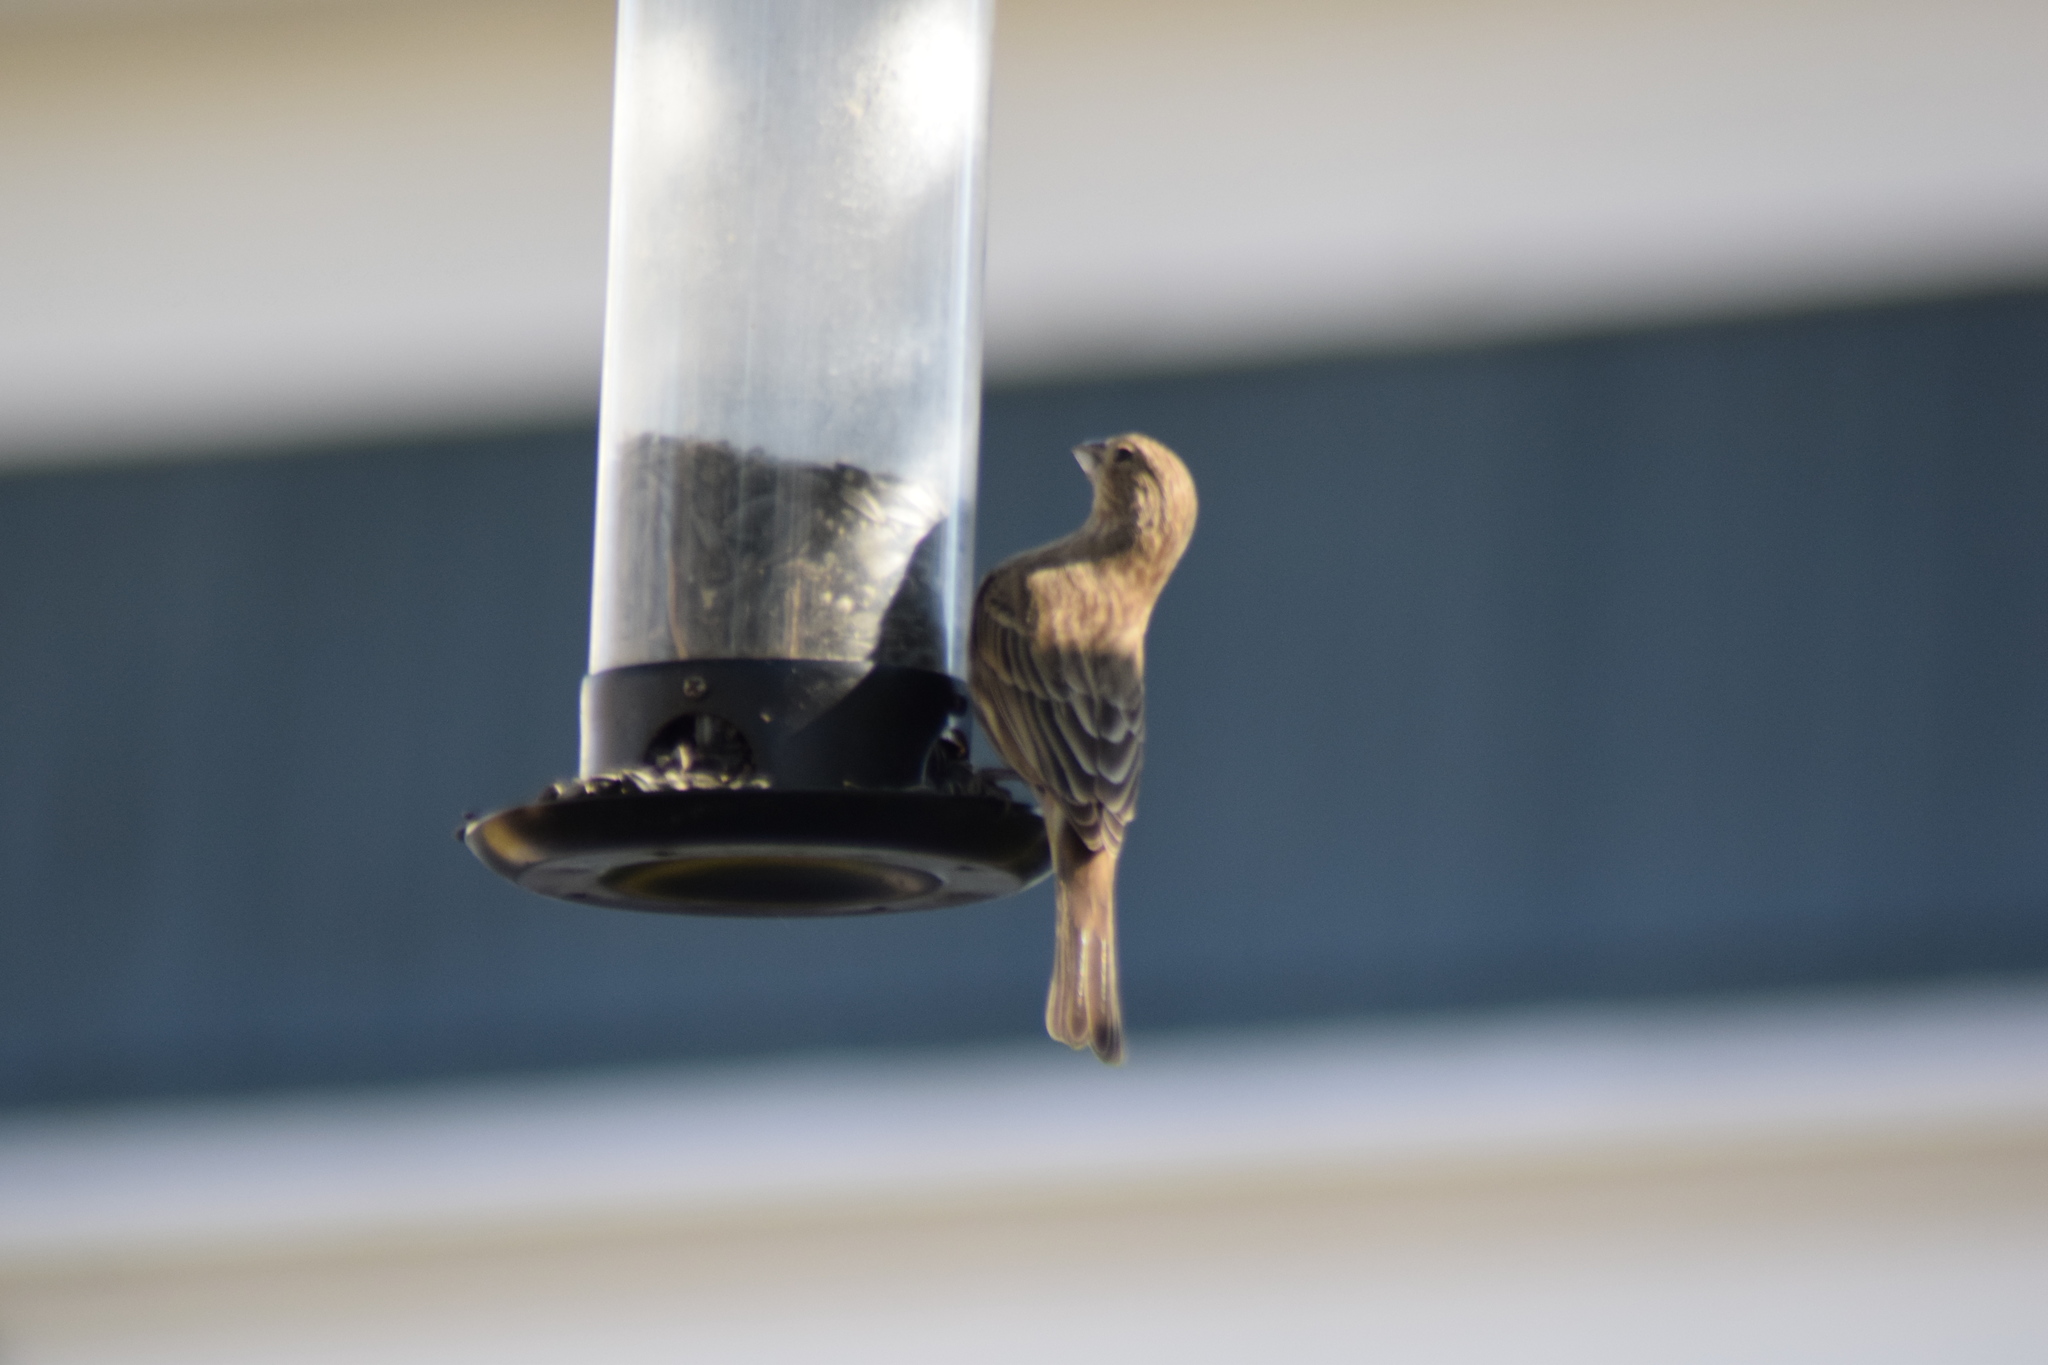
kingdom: Animalia
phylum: Chordata
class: Aves
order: Passeriformes
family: Fringillidae
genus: Haemorhous
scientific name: Haemorhous mexicanus
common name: House finch
